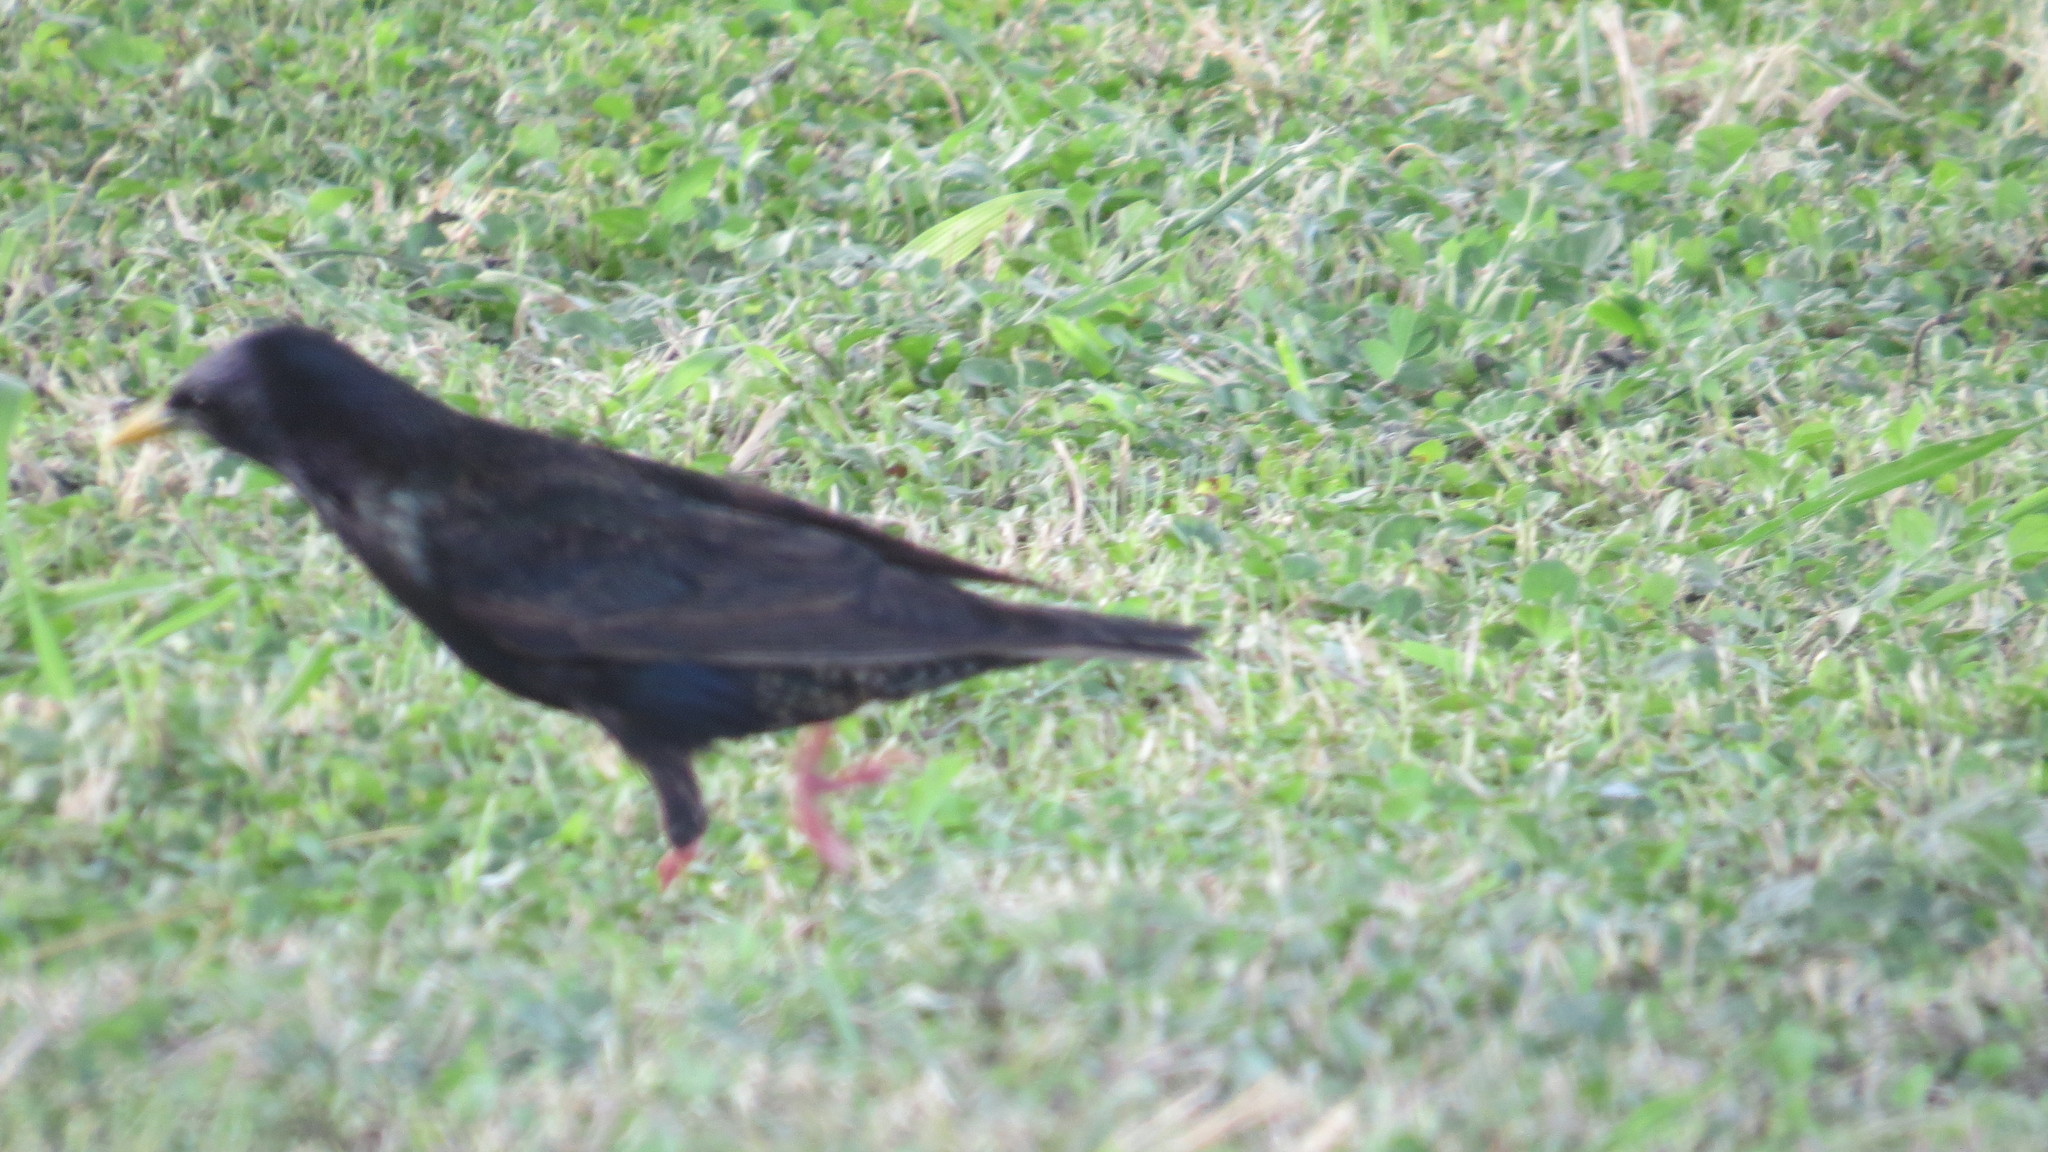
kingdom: Animalia
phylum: Chordata
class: Aves
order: Passeriformes
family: Sturnidae
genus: Sturnus
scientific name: Sturnus vulgaris
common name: Common starling
